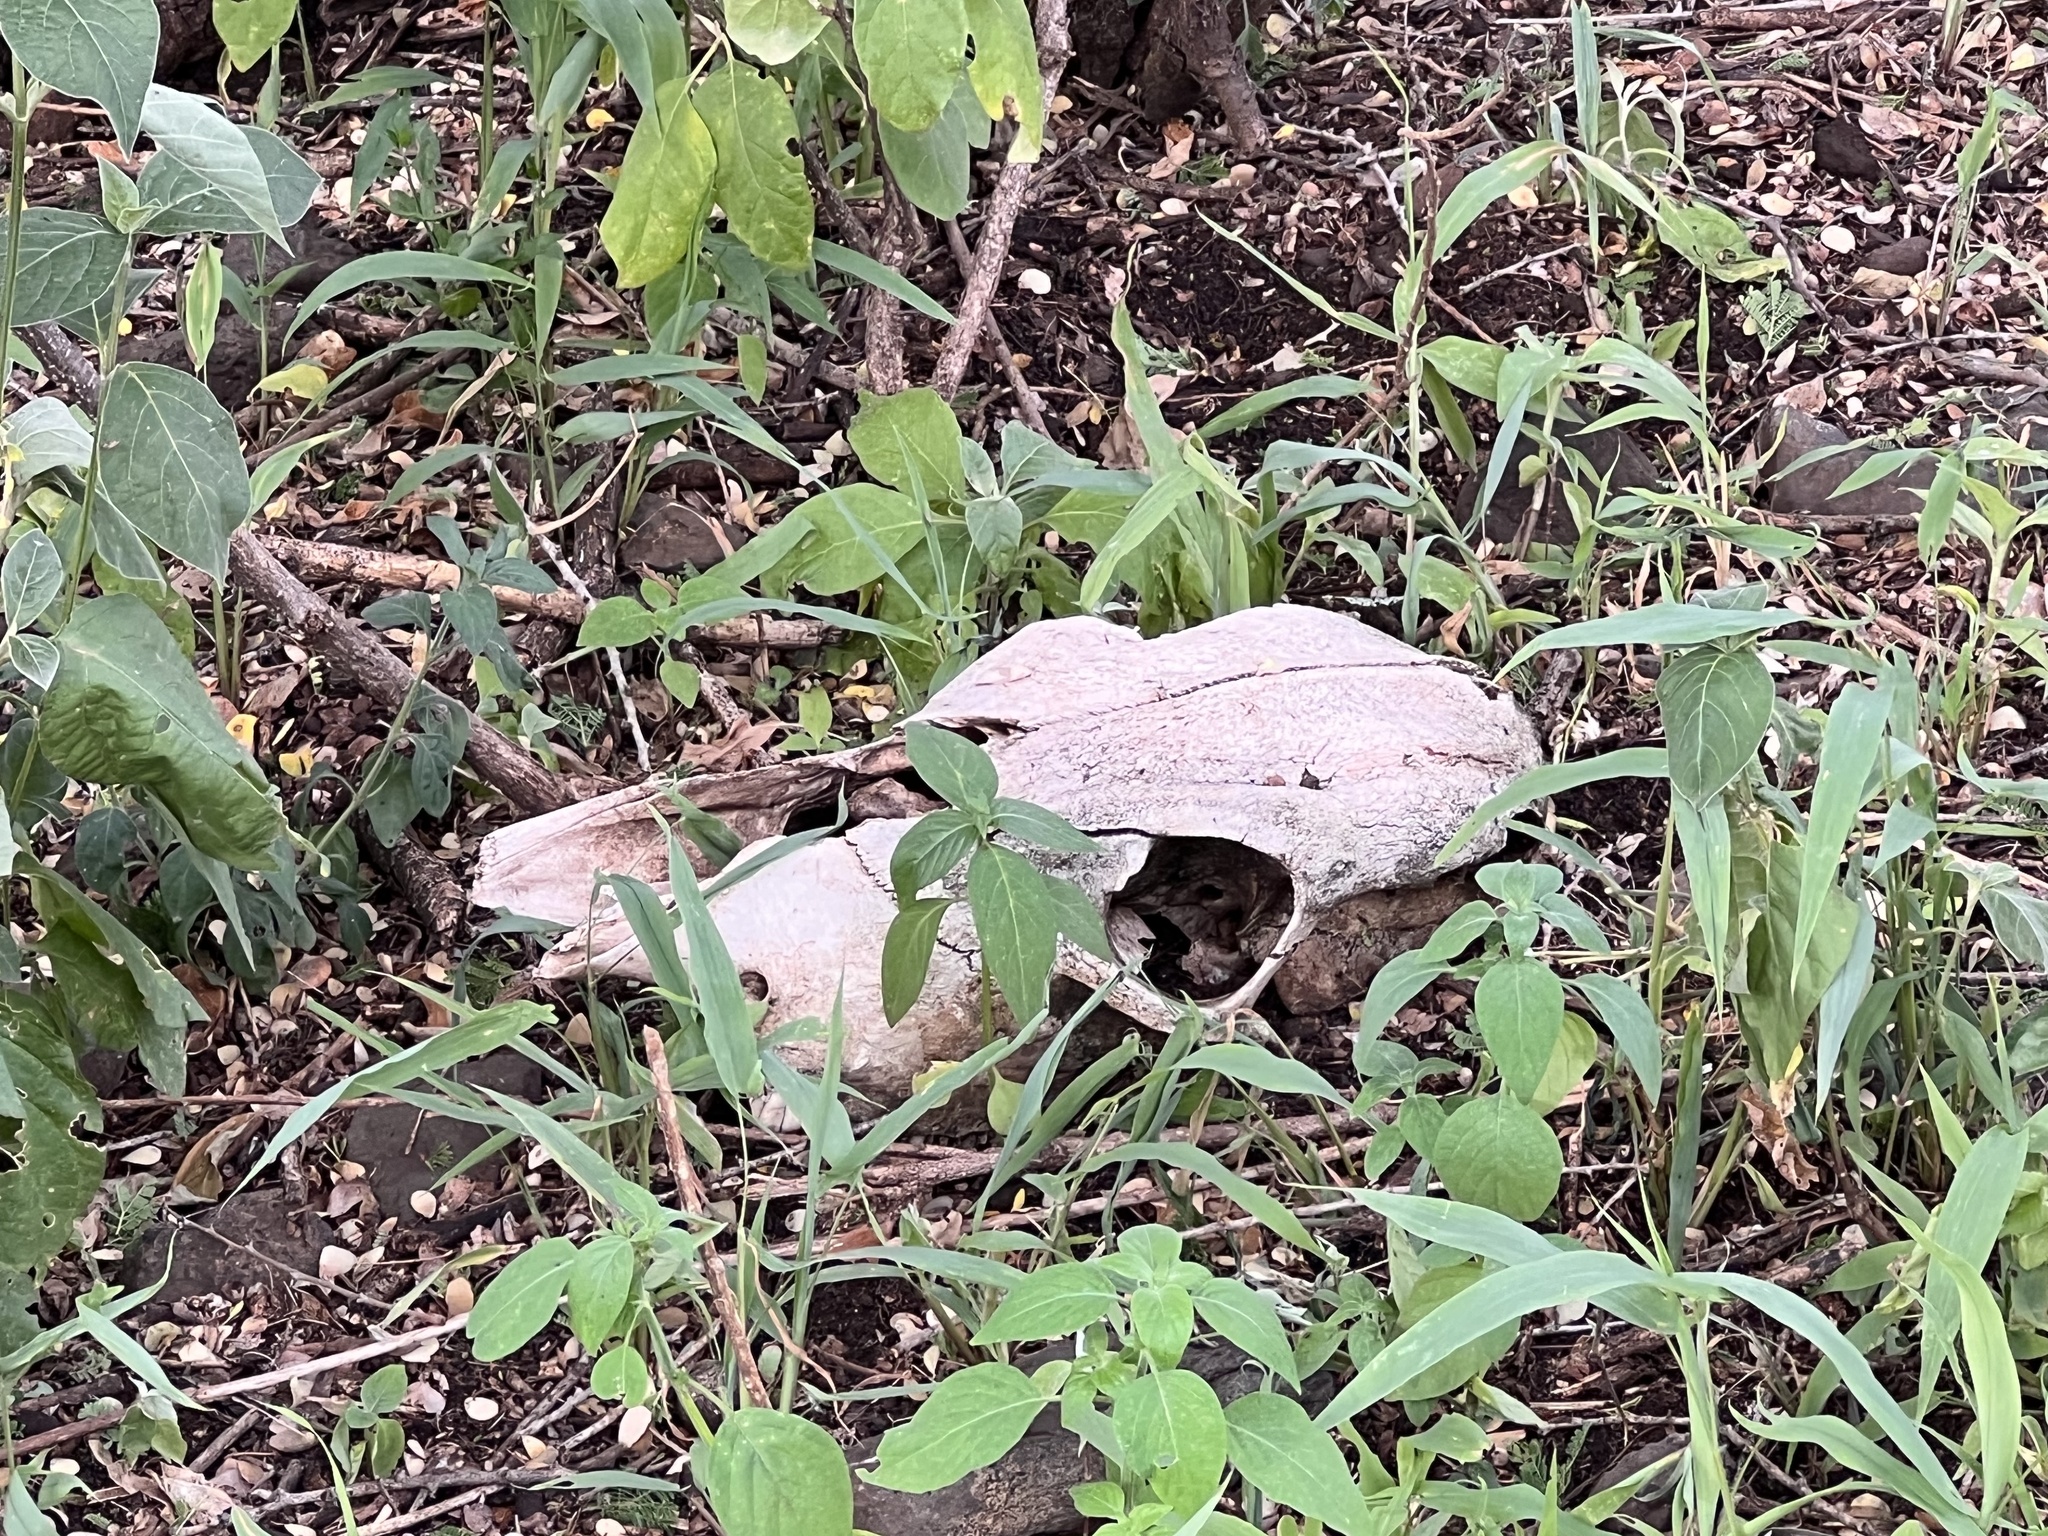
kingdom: Animalia
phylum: Chordata
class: Mammalia
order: Artiodactyla
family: Bovidae
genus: Bos
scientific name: Bos taurus
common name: Domesticated cattle
